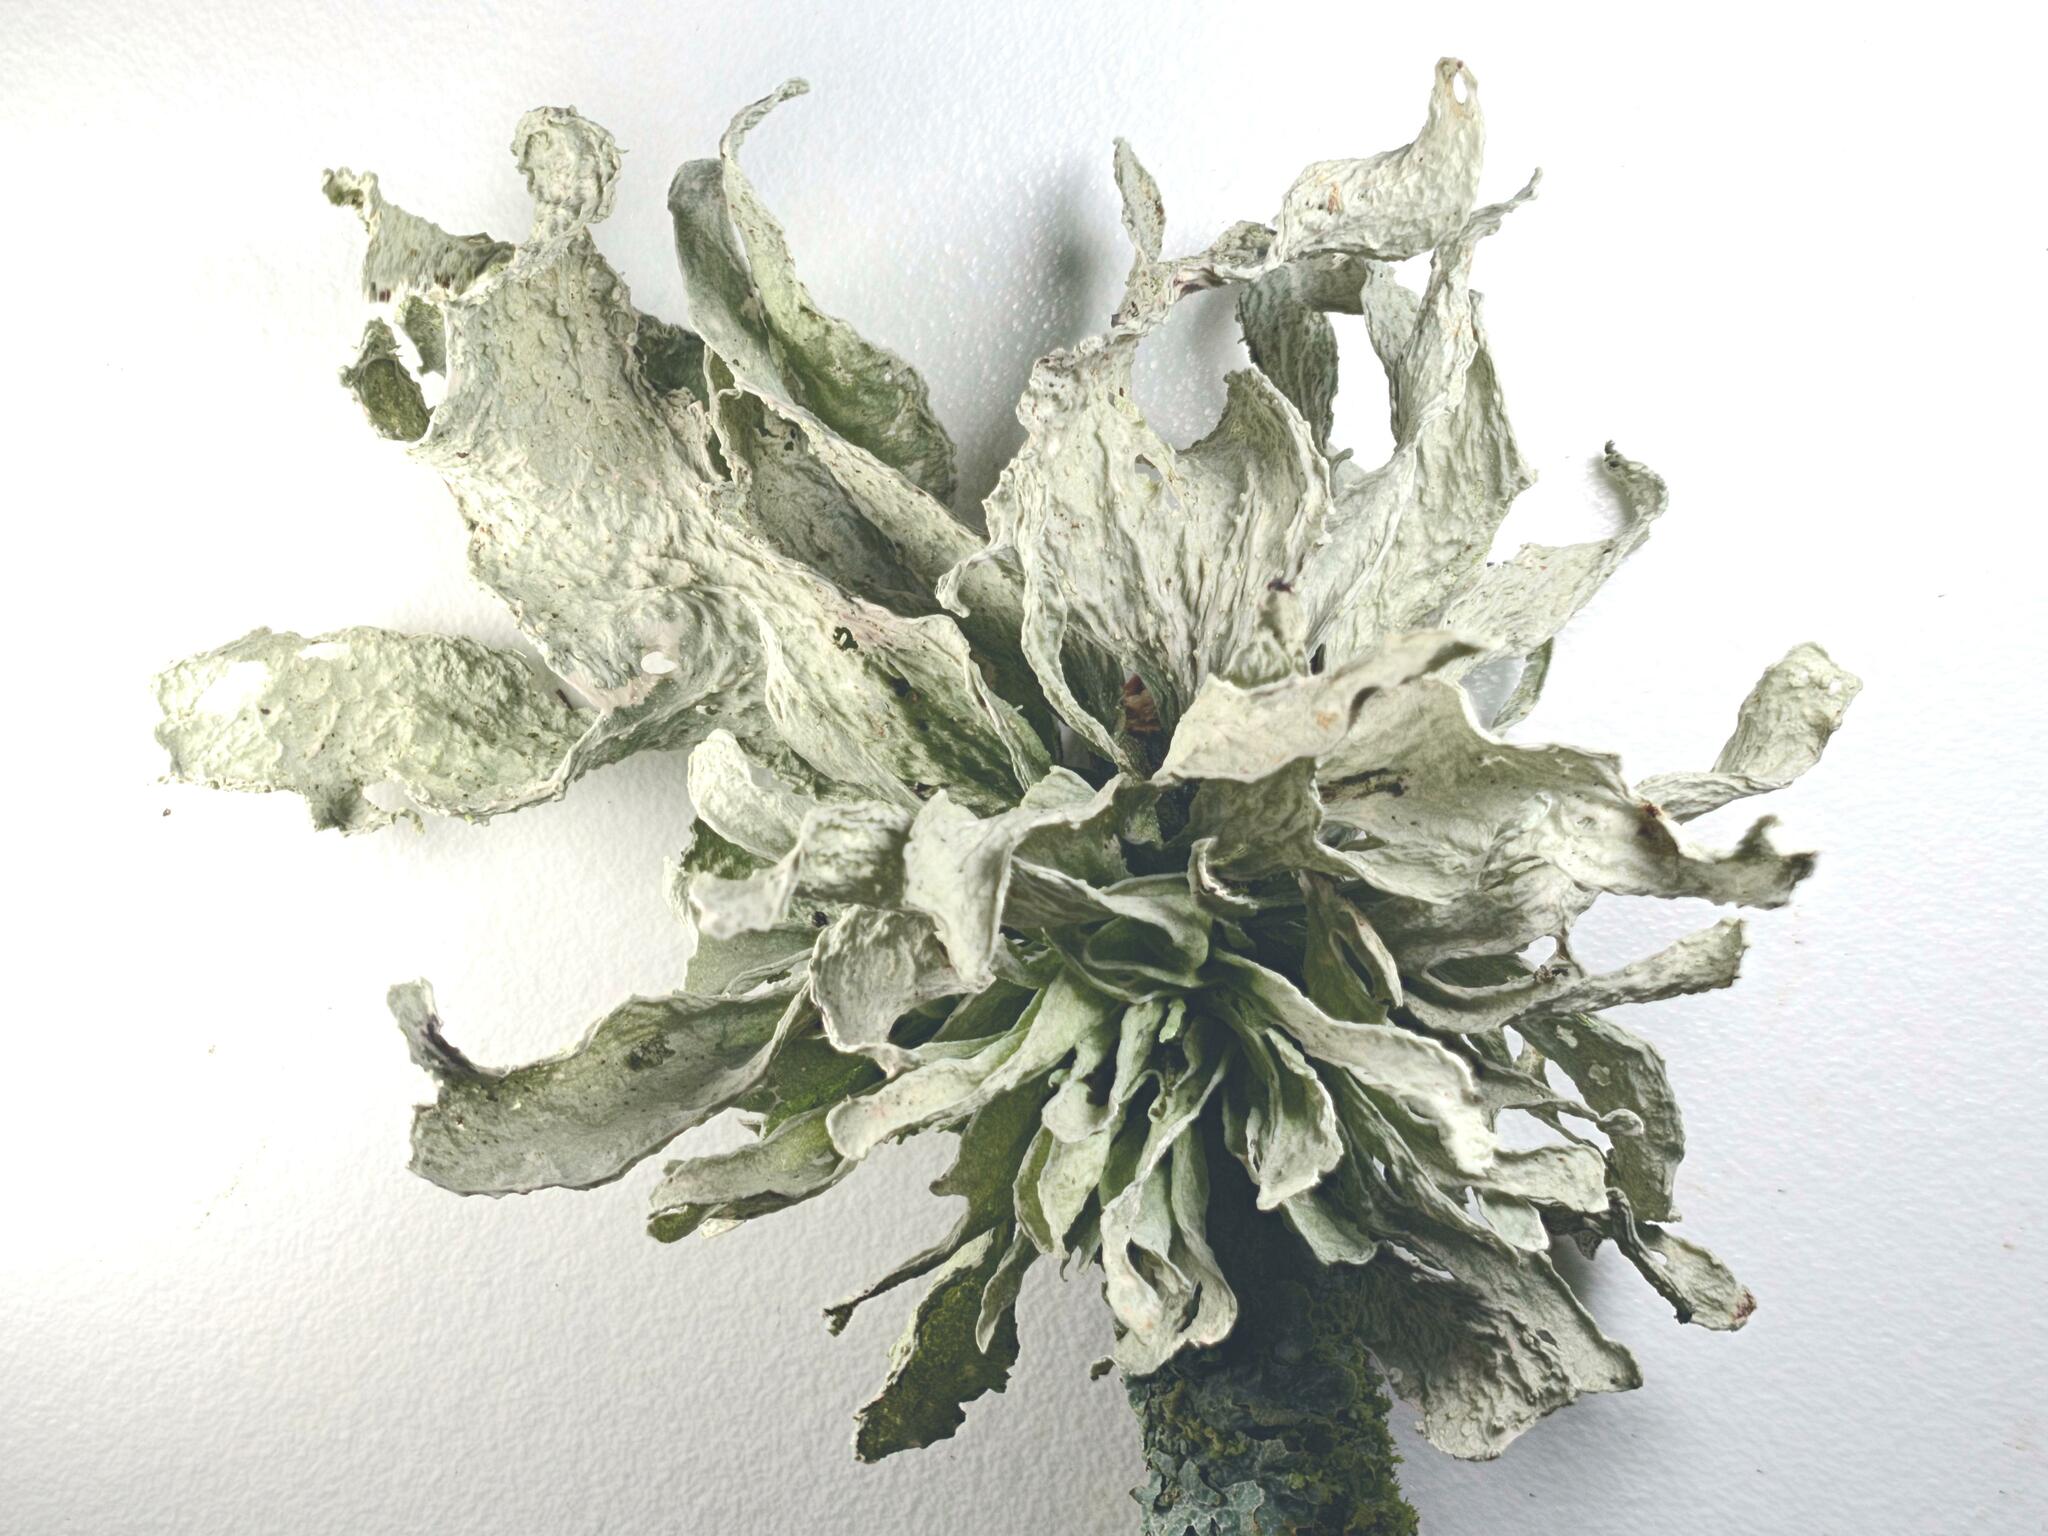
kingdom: Fungi
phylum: Ascomycota
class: Lecanoromycetes
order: Lecanorales
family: Ramalinaceae
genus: Ramalina
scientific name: Ramalina fraxinea
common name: Cartilage lichen
